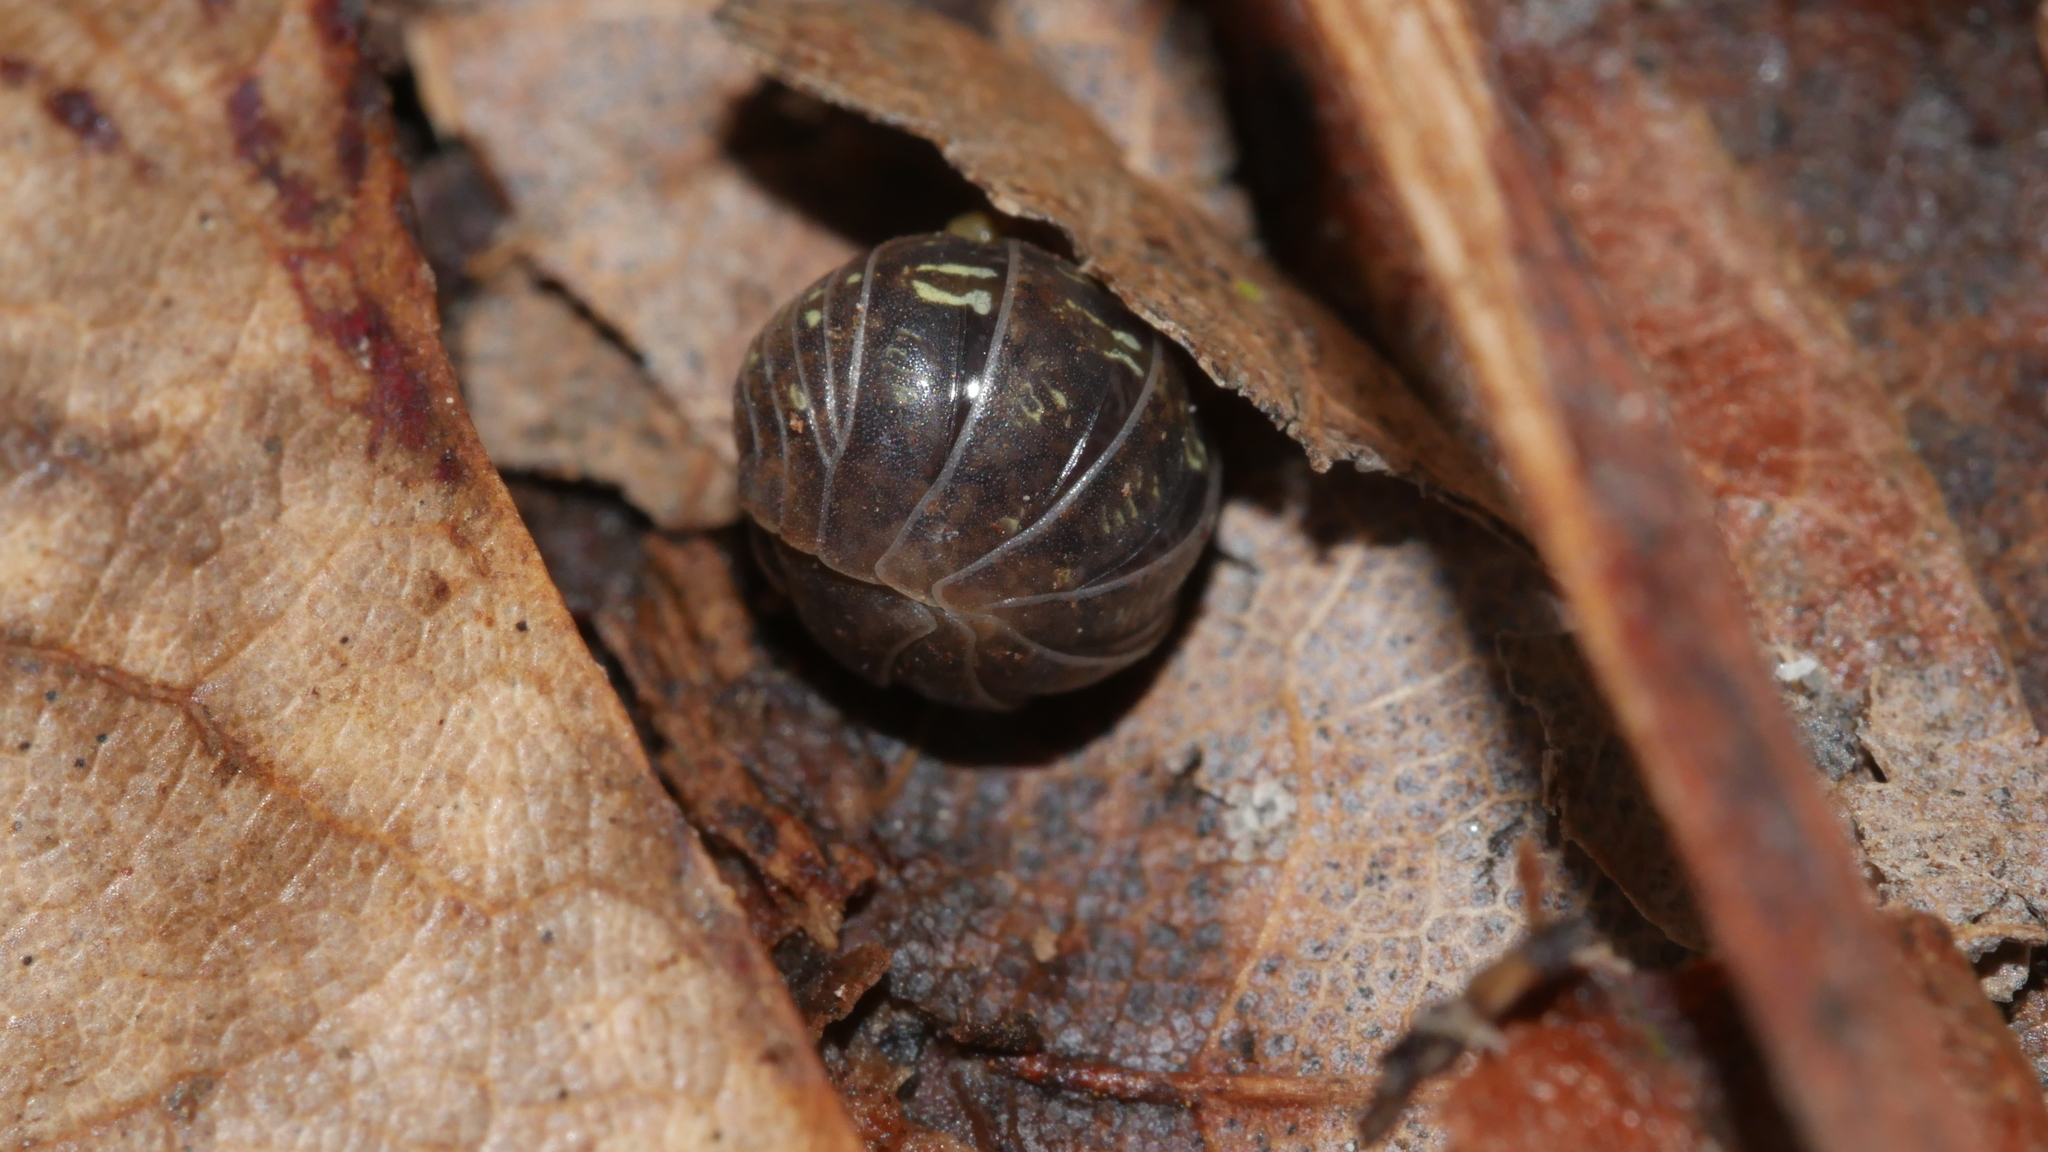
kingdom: Animalia
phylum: Arthropoda
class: Malacostraca
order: Isopoda
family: Armadillidiidae
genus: Armadillidium
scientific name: Armadillidium vulgare
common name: Common pill woodlouse
